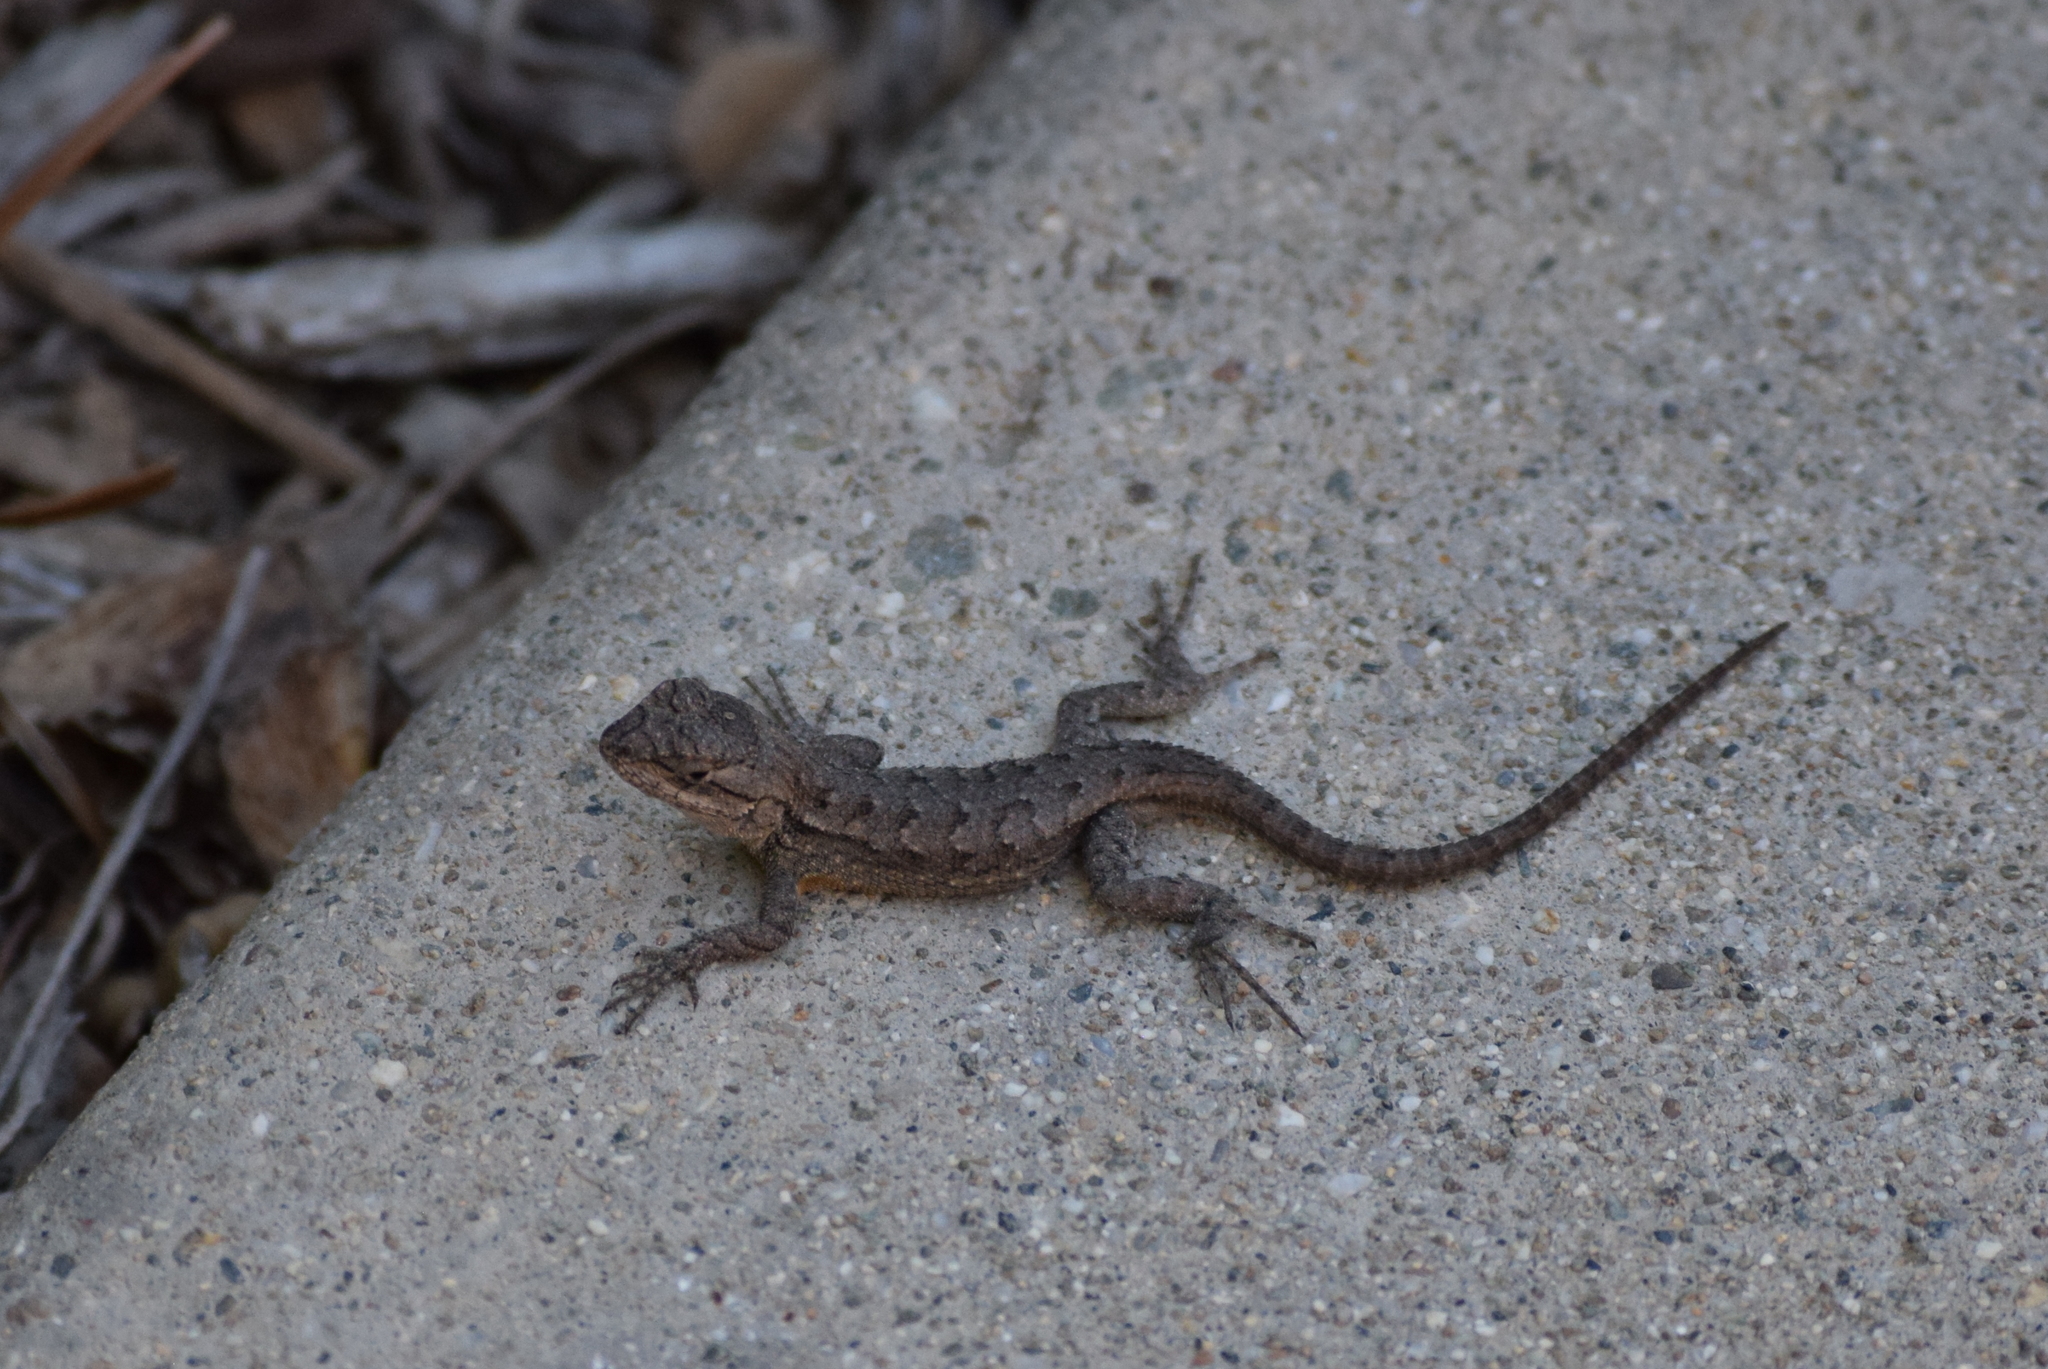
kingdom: Animalia
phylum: Chordata
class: Squamata
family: Phrynosomatidae
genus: Sceloporus
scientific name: Sceloporus occidentalis
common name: Western fence lizard
